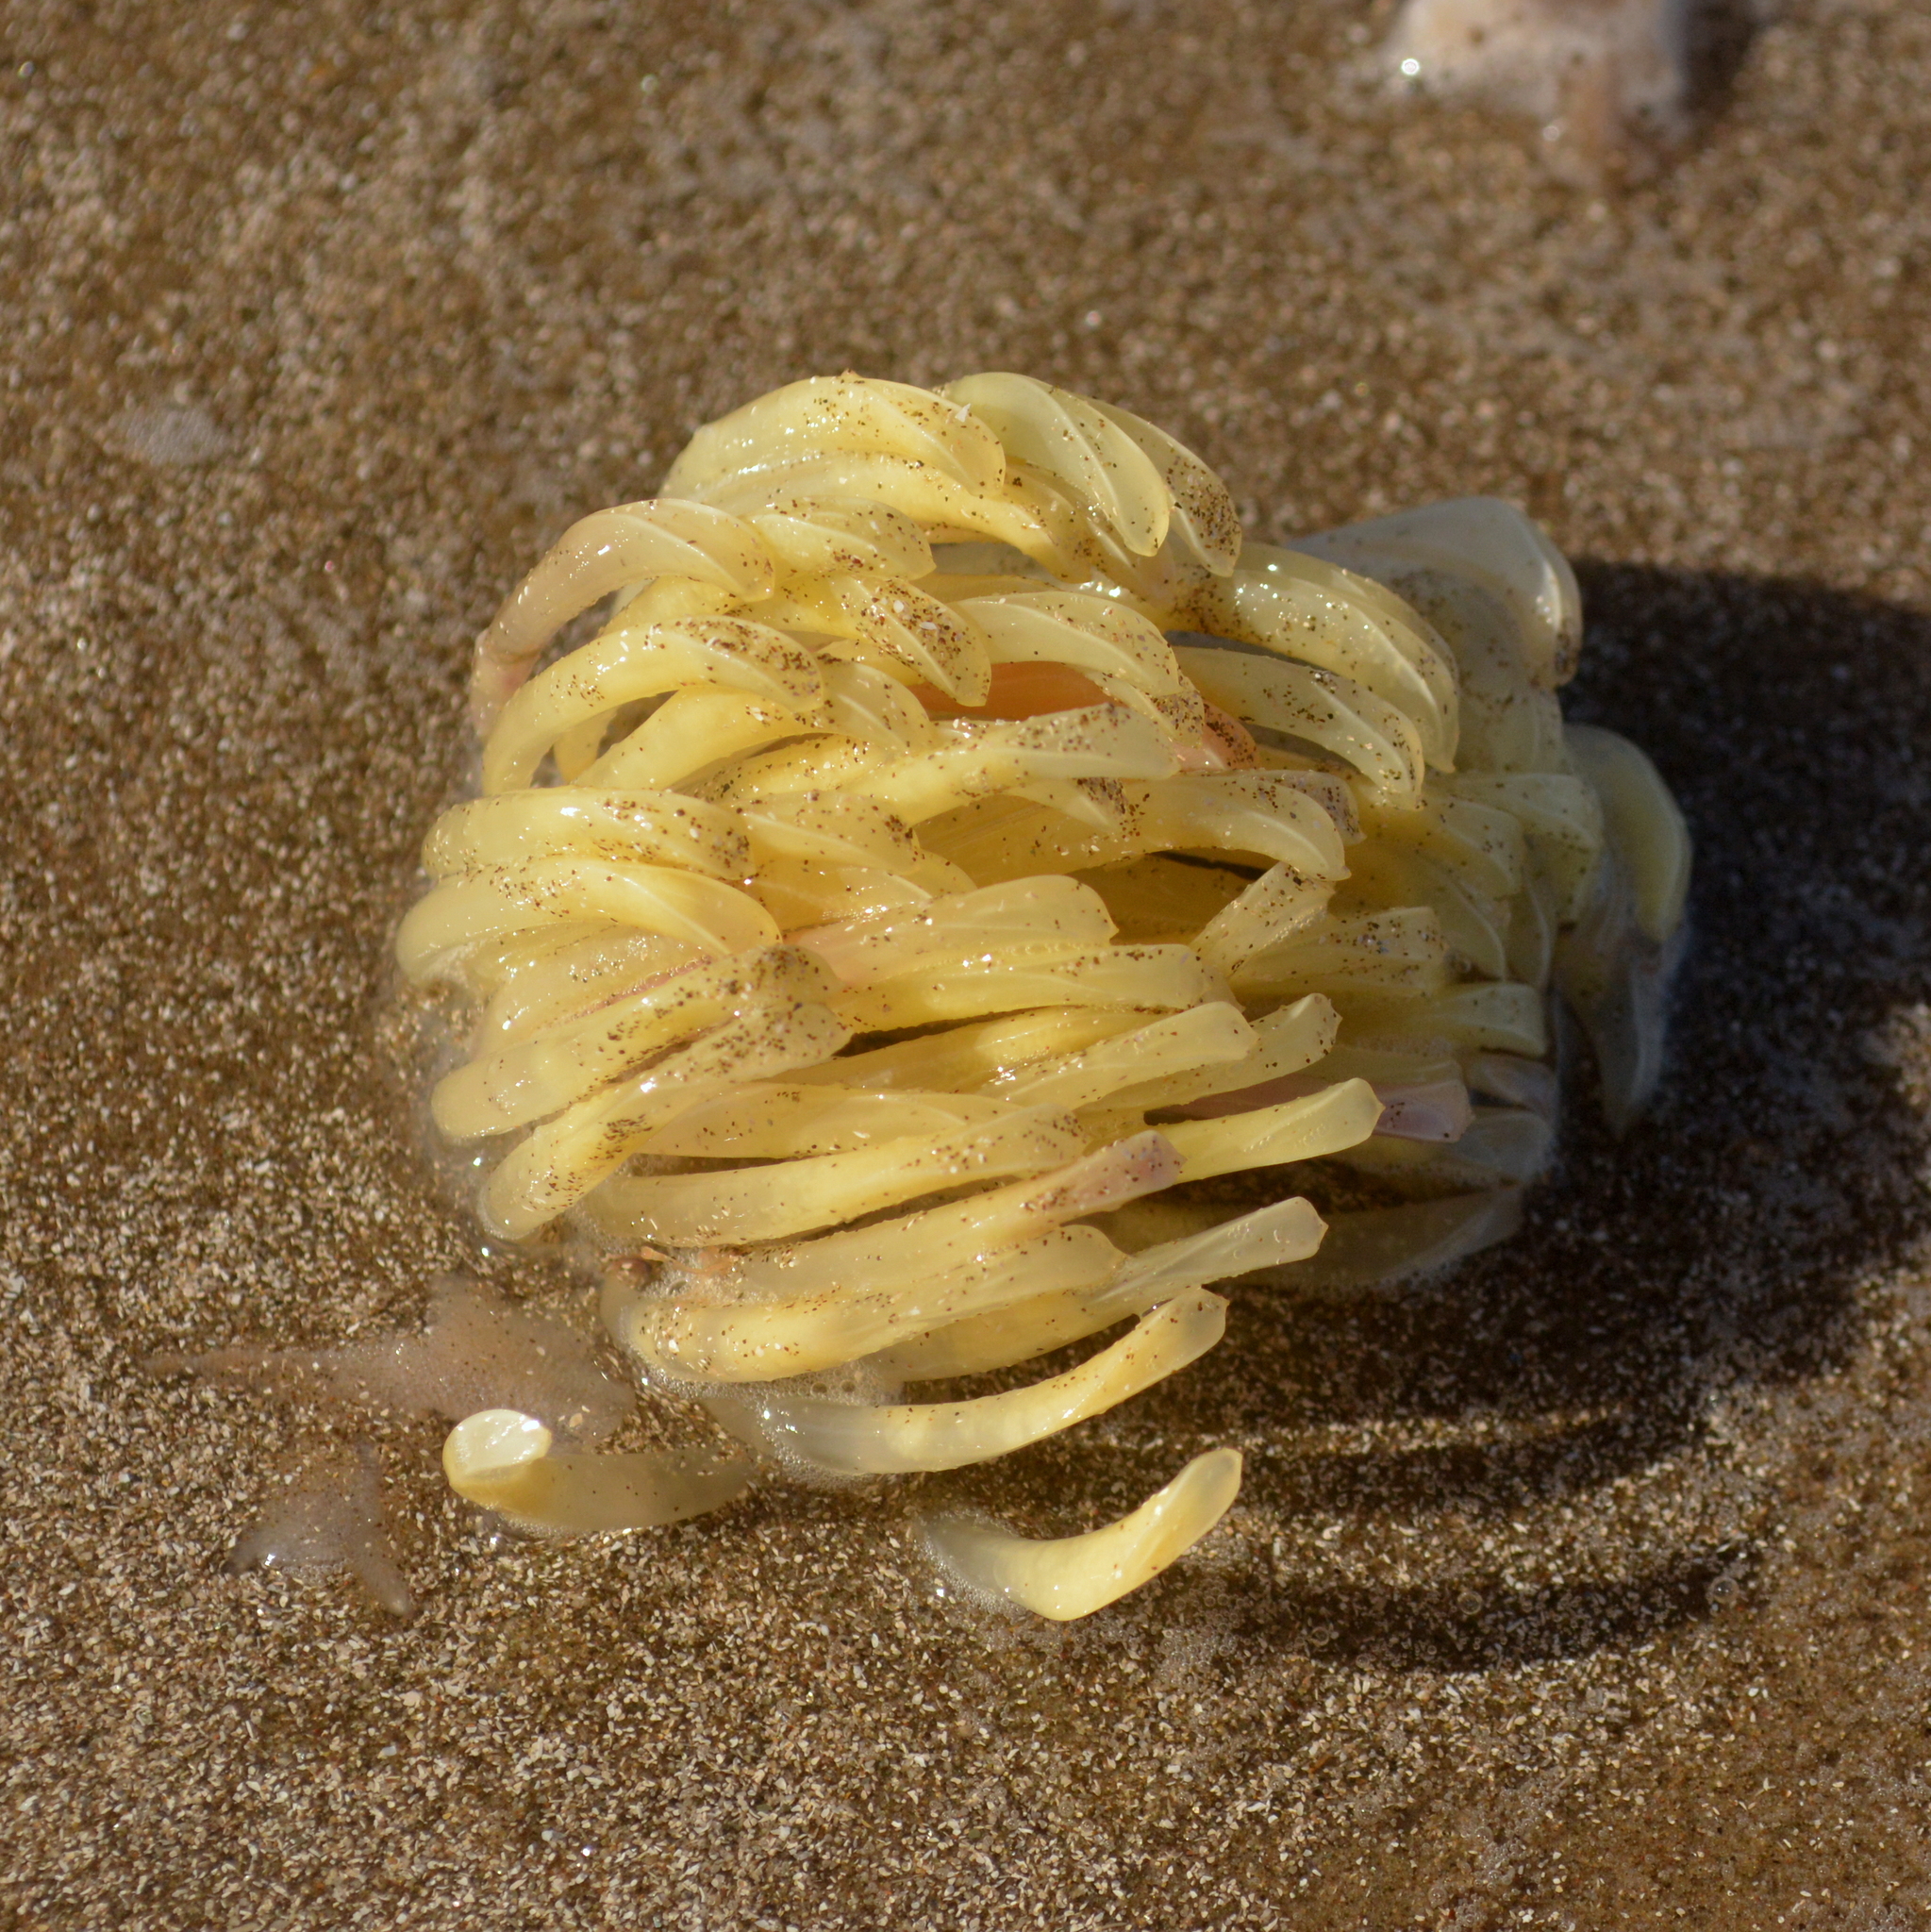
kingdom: Animalia
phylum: Mollusca
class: Gastropoda
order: Neogastropoda
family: Muricidae
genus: Rapana
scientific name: Rapana venosa
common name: Veined rapa whelk
